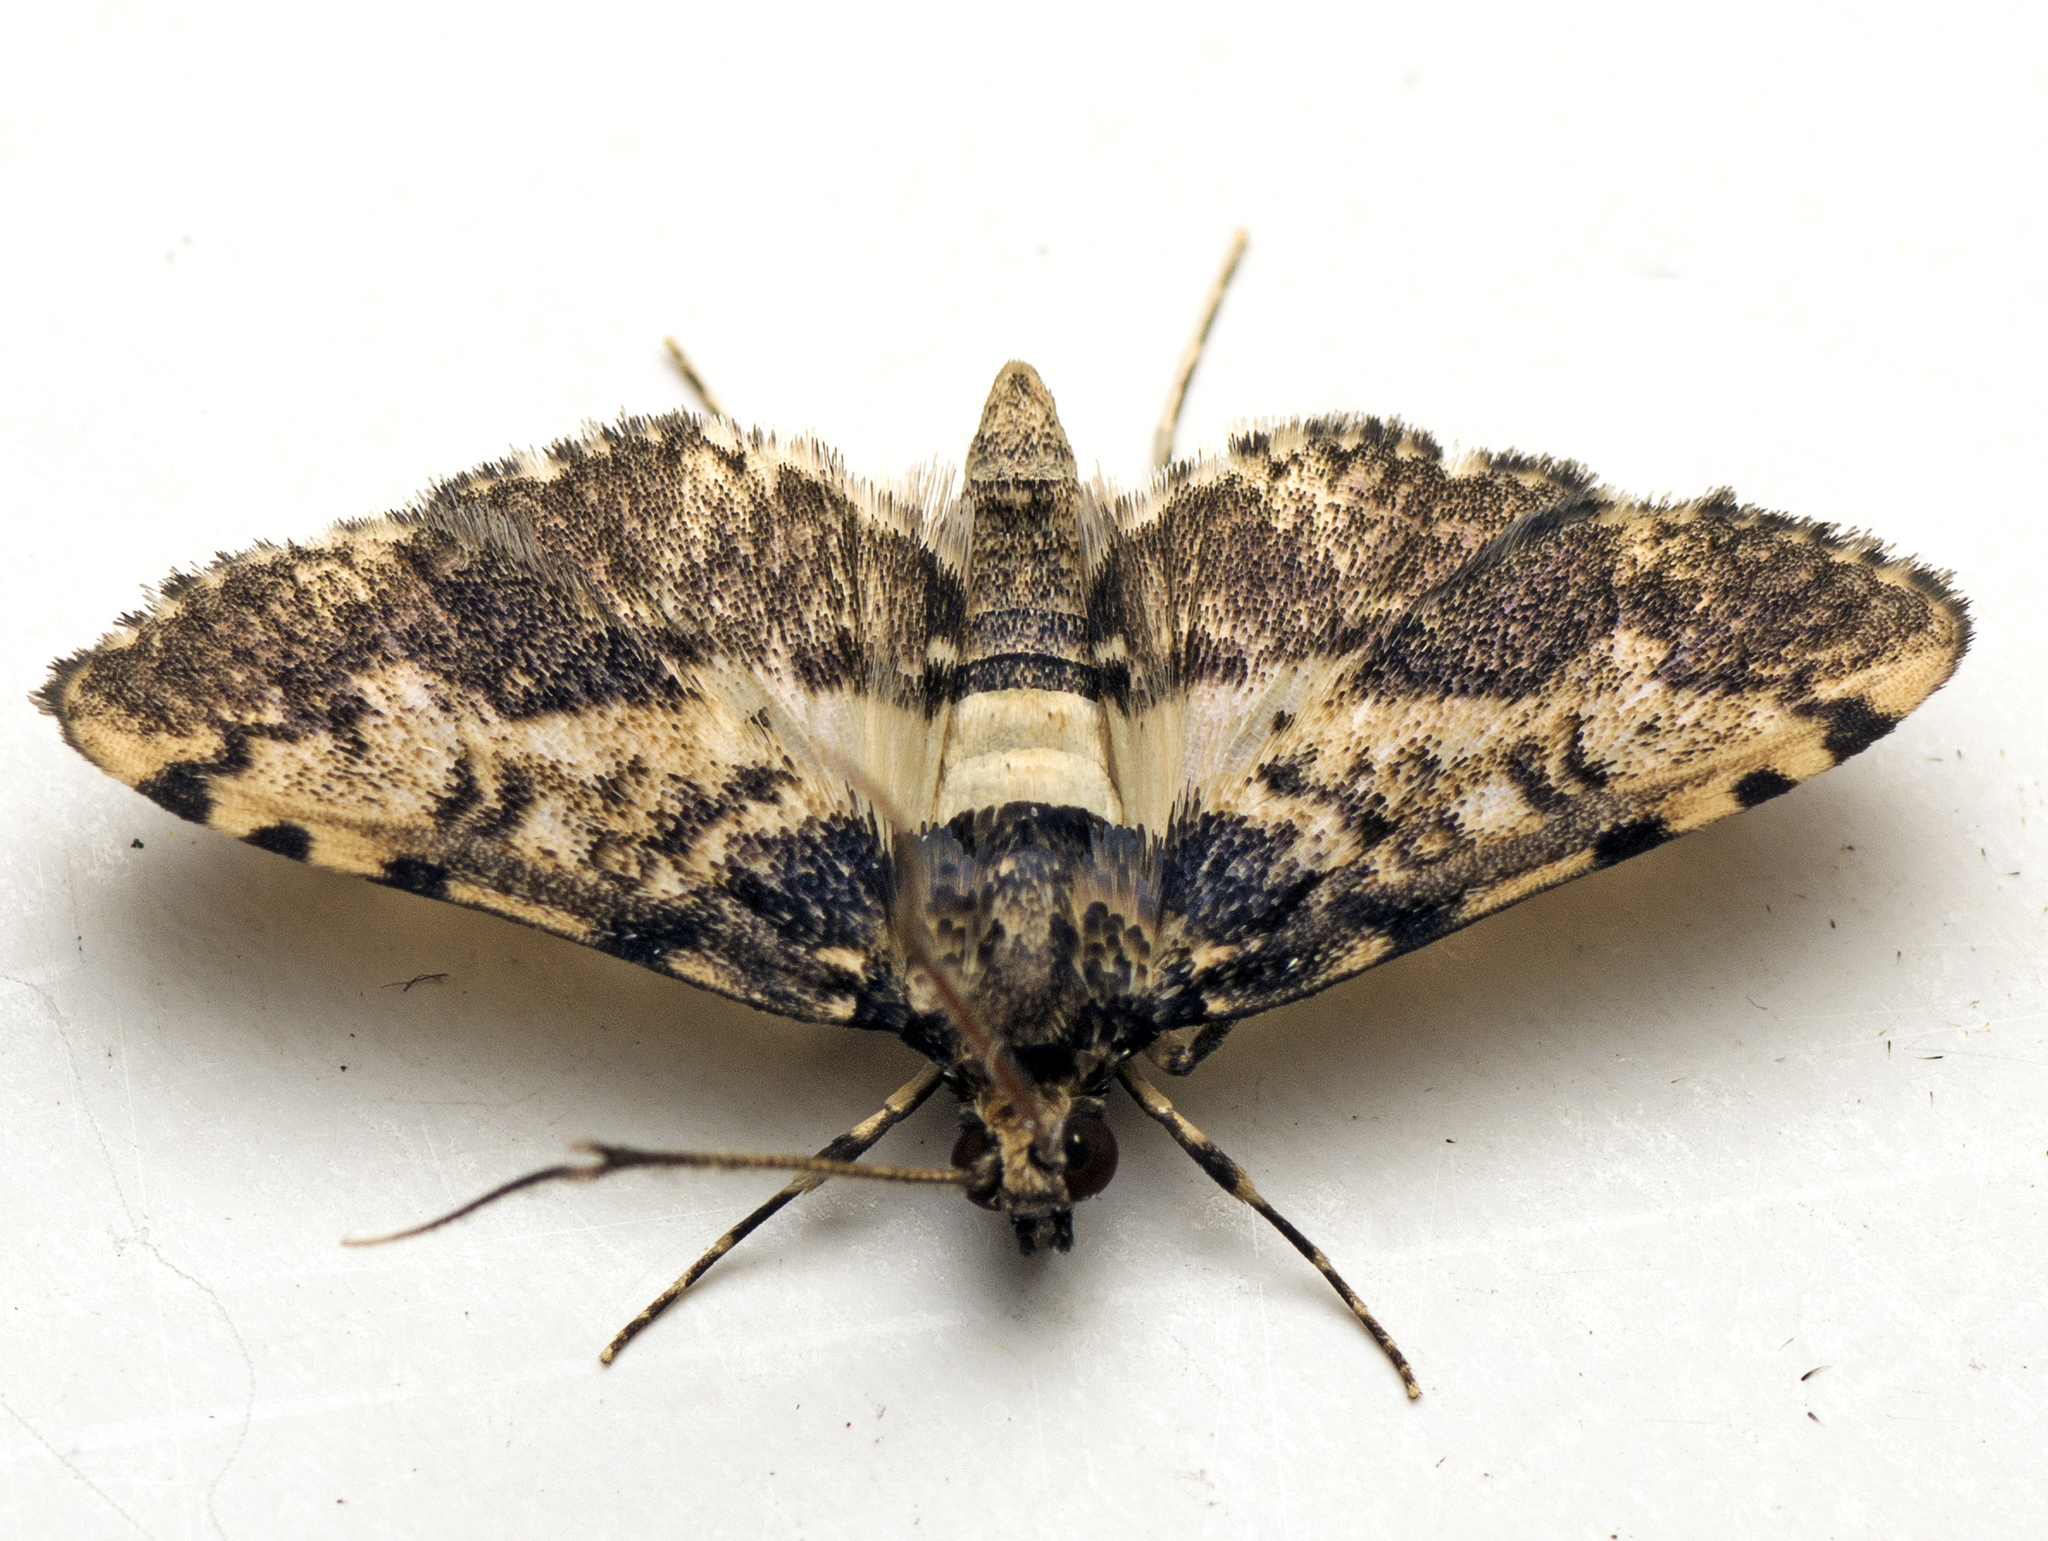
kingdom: Animalia
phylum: Arthropoda
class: Insecta
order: Lepidoptera
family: Crambidae
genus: Nacoleia
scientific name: Nacoleia amphicedalis
